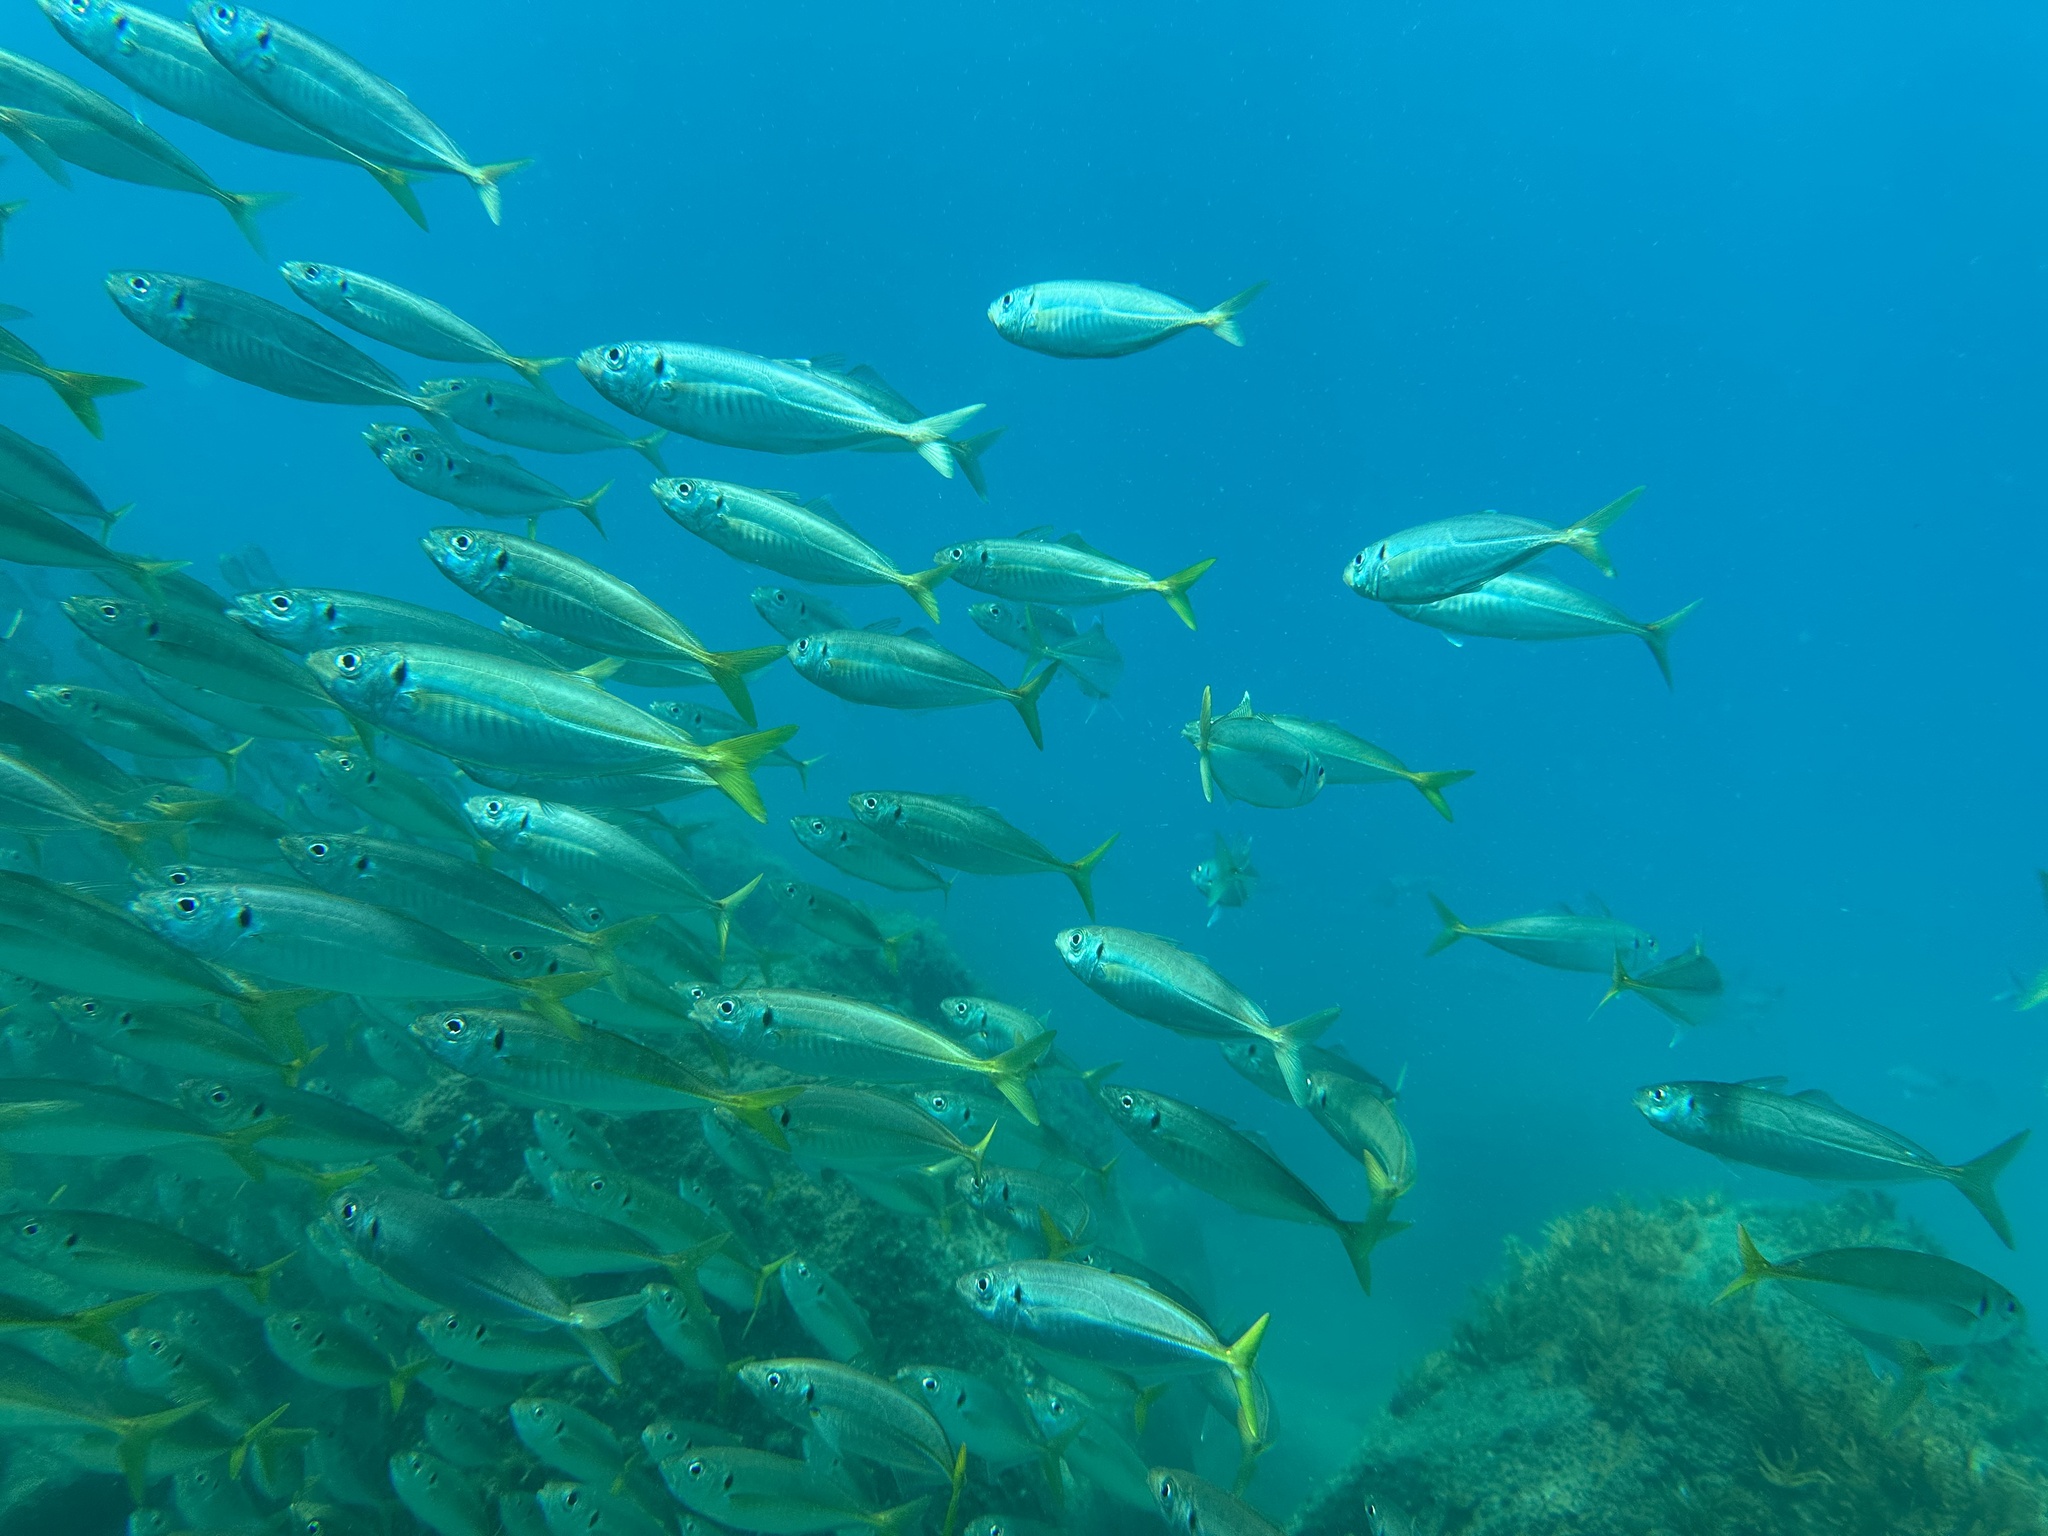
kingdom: Animalia
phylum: Chordata
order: Perciformes
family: Carangidae
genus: Trachurus
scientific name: Trachurus novaezelandiae
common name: Yellowtail horse mackerel
